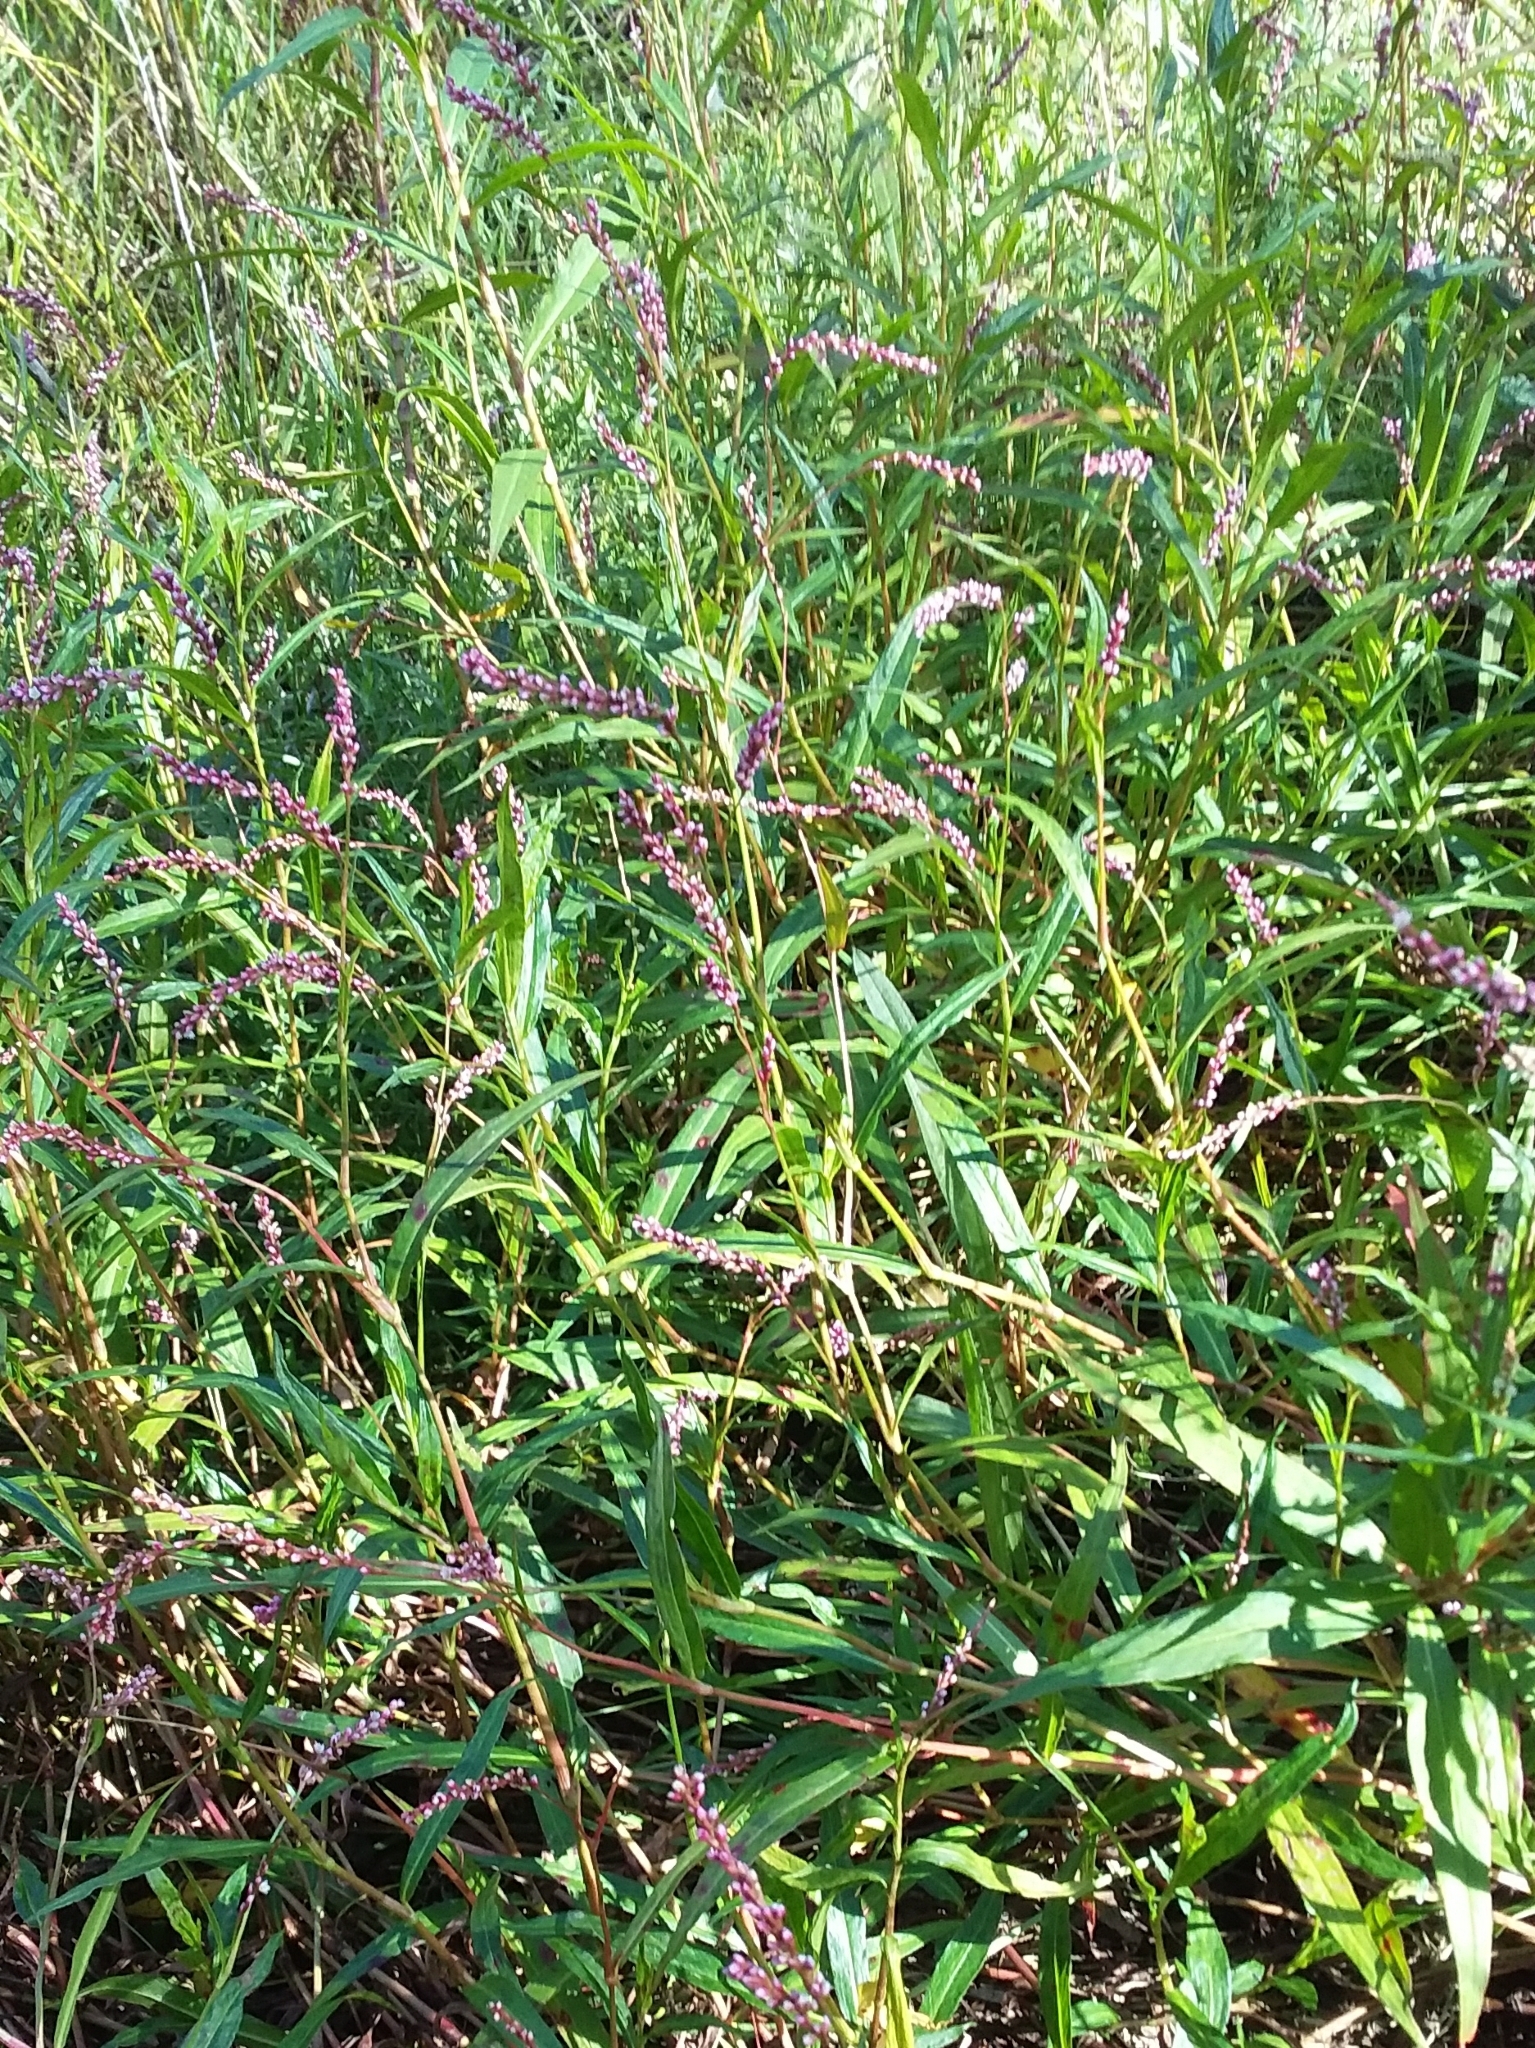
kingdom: Plantae
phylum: Tracheophyta
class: Magnoliopsida
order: Caryophyllales
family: Polygonaceae
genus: Persicaria
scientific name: Persicaria decipiens
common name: Willow-weed
